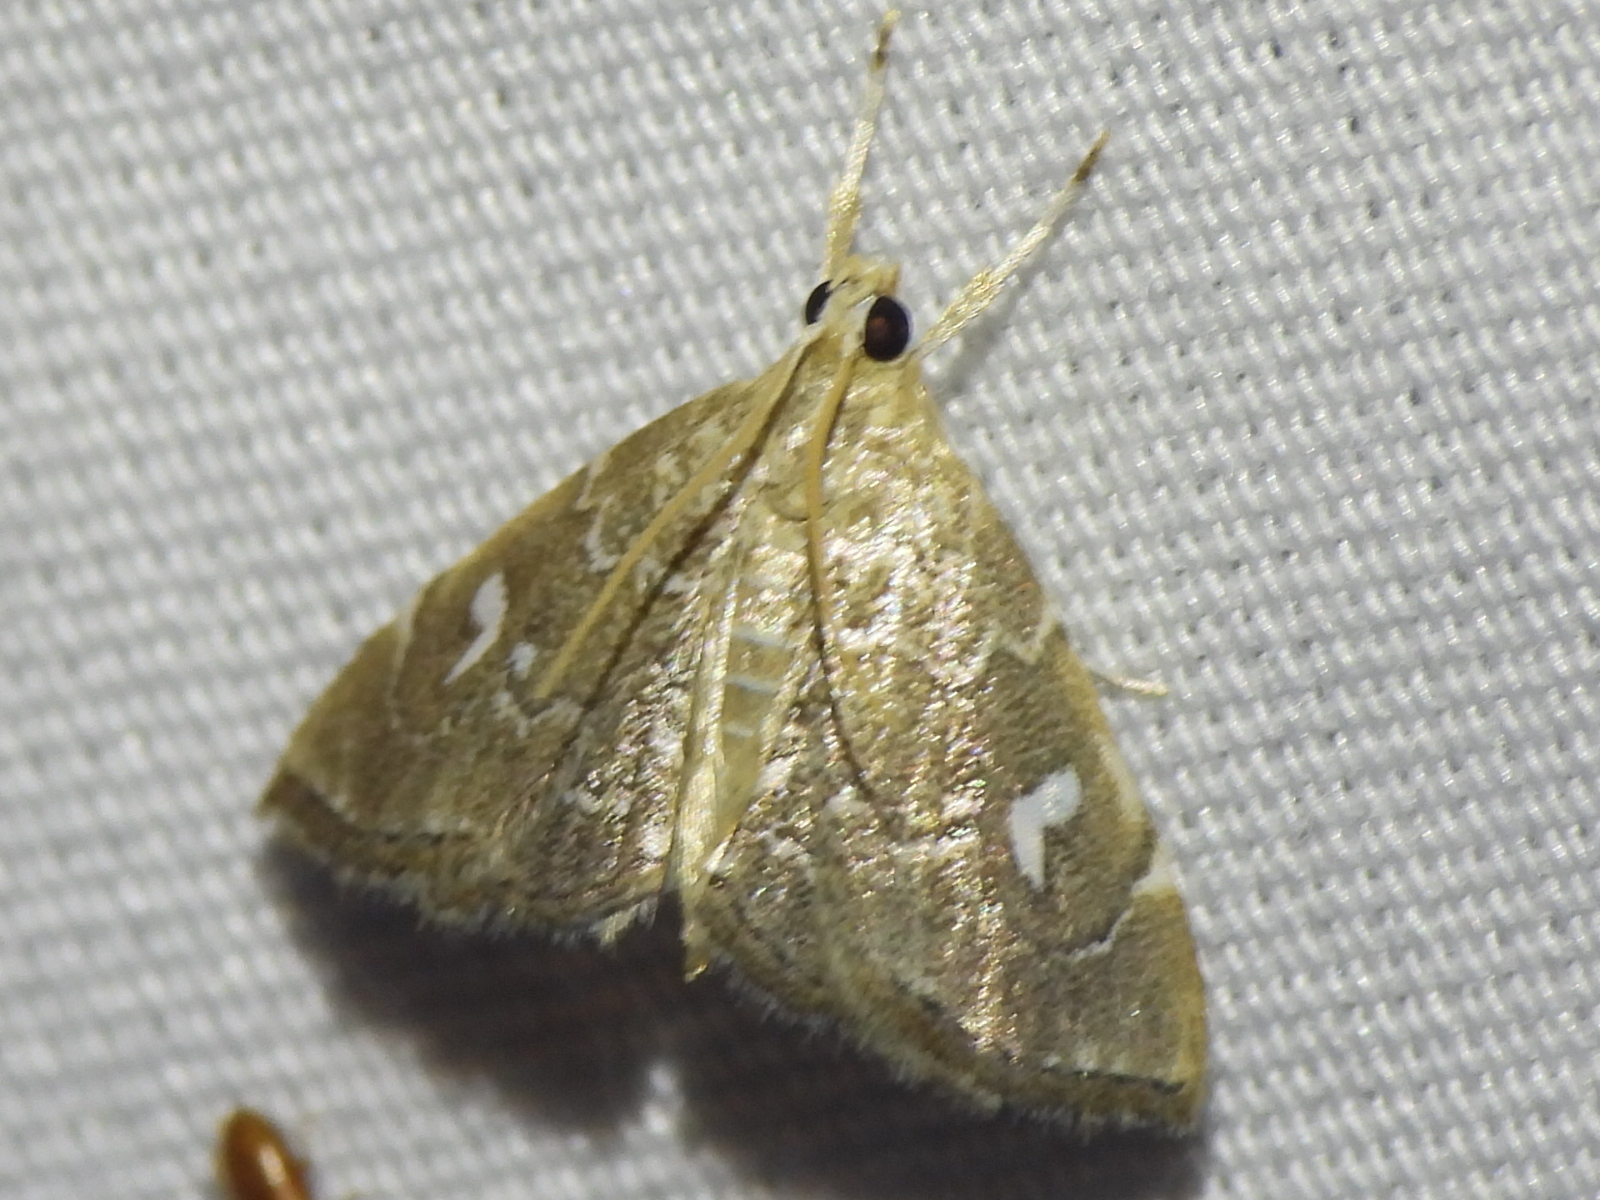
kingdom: Animalia
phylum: Arthropoda
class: Insecta
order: Lepidoptera
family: Crambidae
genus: Nephrogramma
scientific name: Nephrogramma reniculalis
